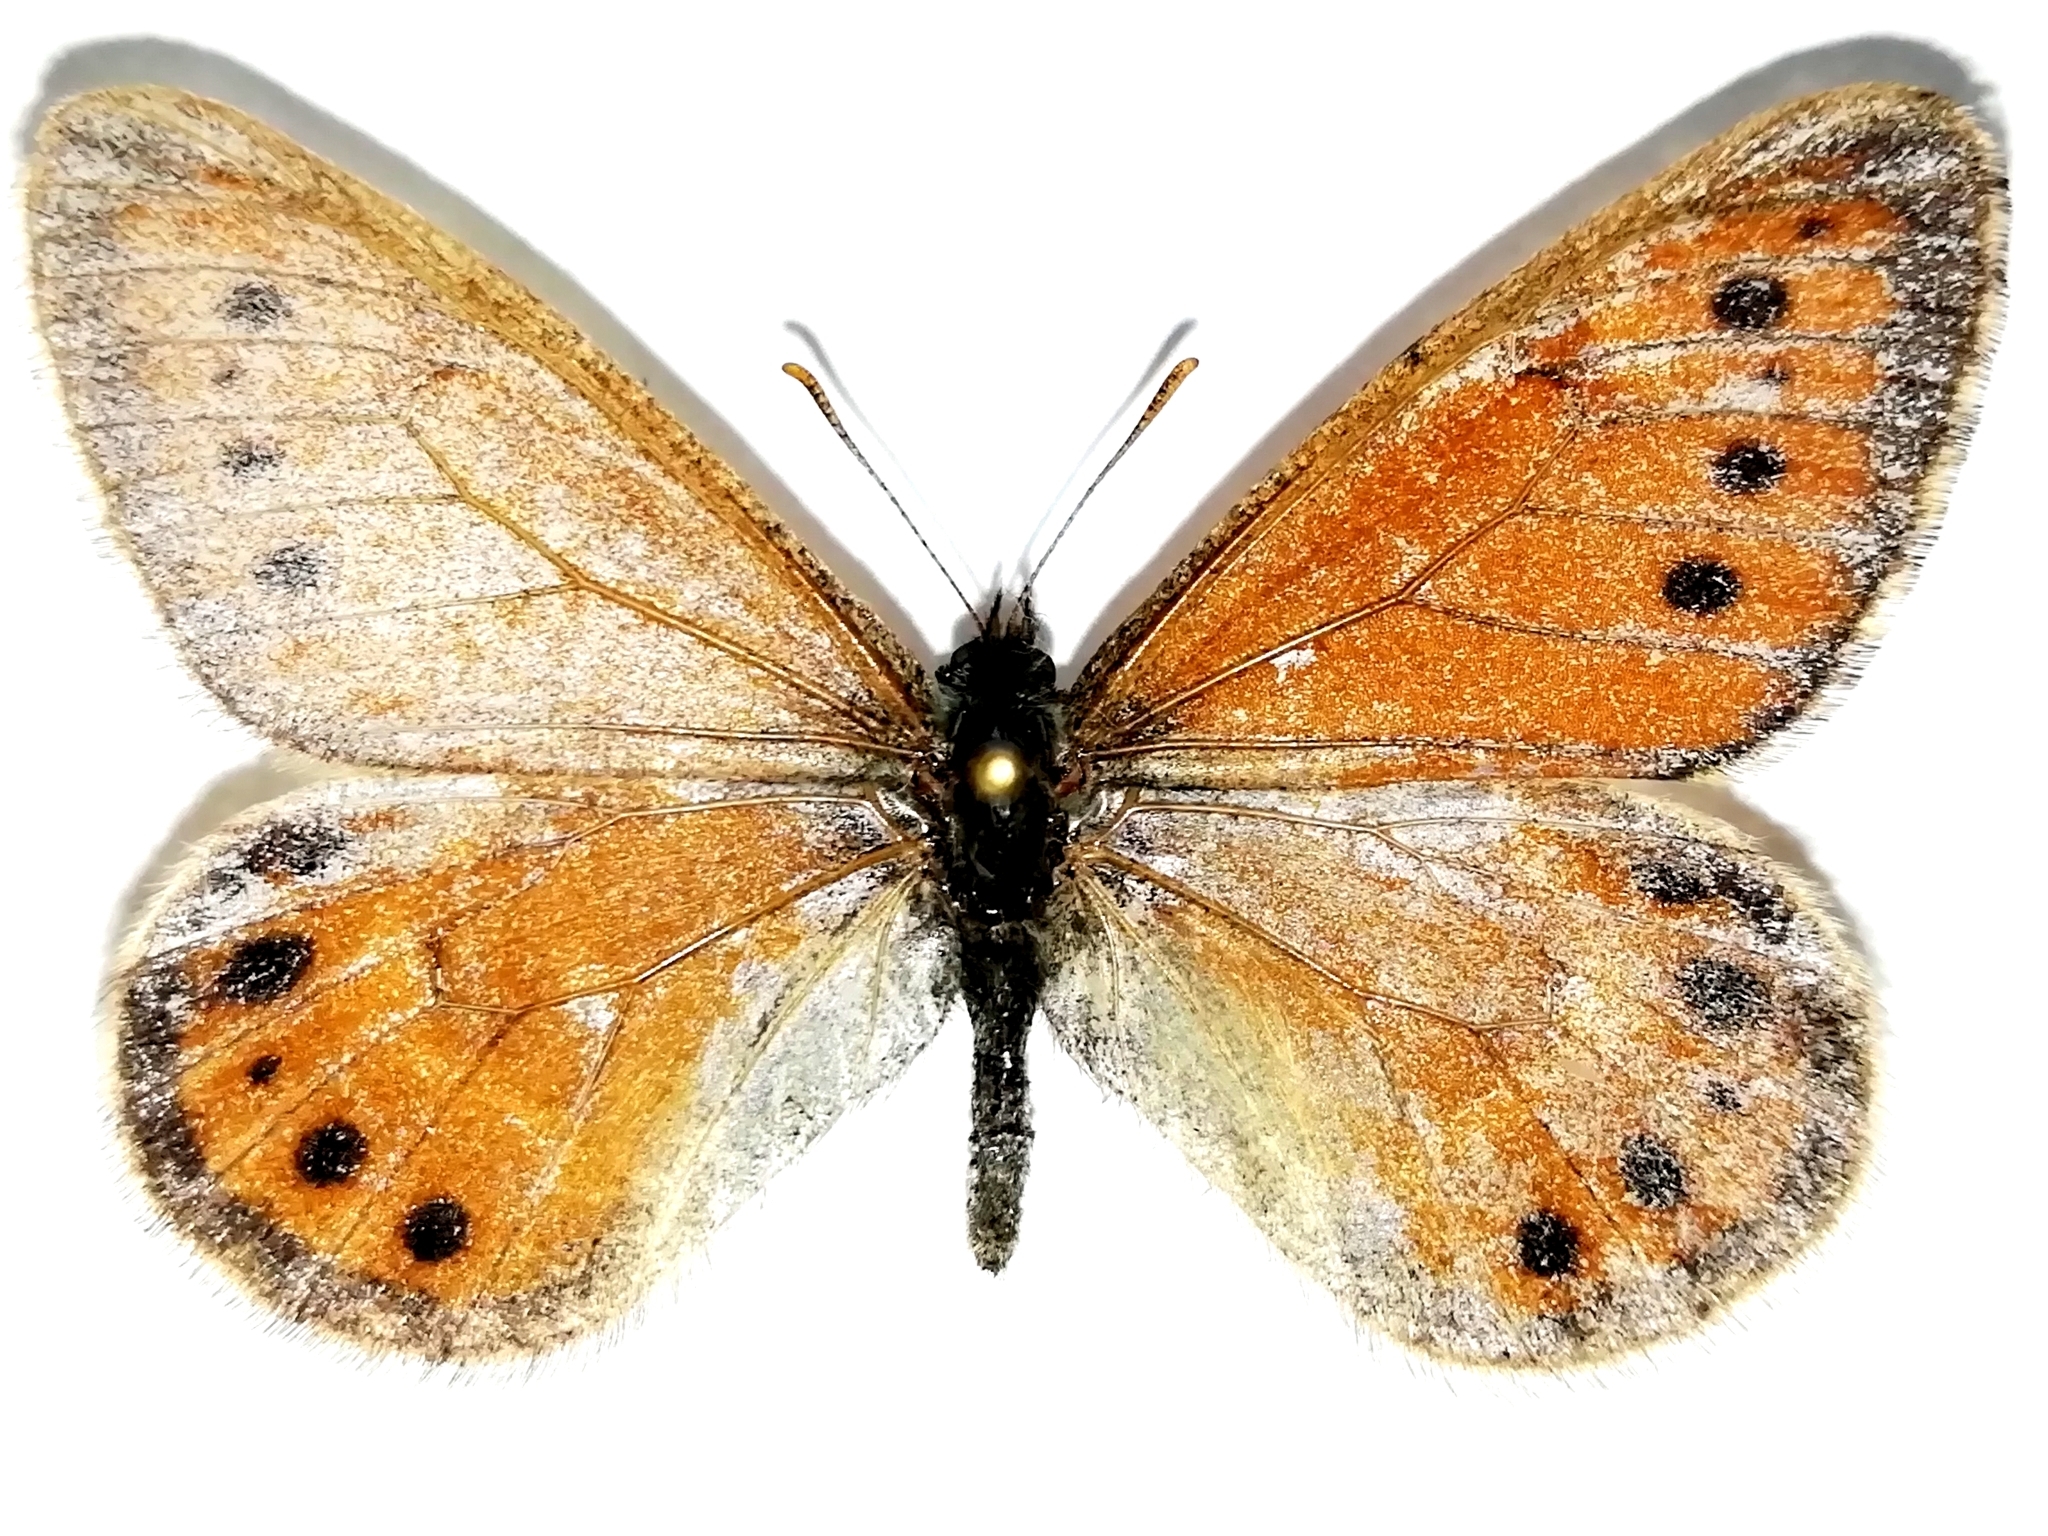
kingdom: Animalia
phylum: Arthropoda
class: Insecta
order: Lepidoptera
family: Nymphalidae
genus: Oeneis
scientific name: Oeneis tarpeia
